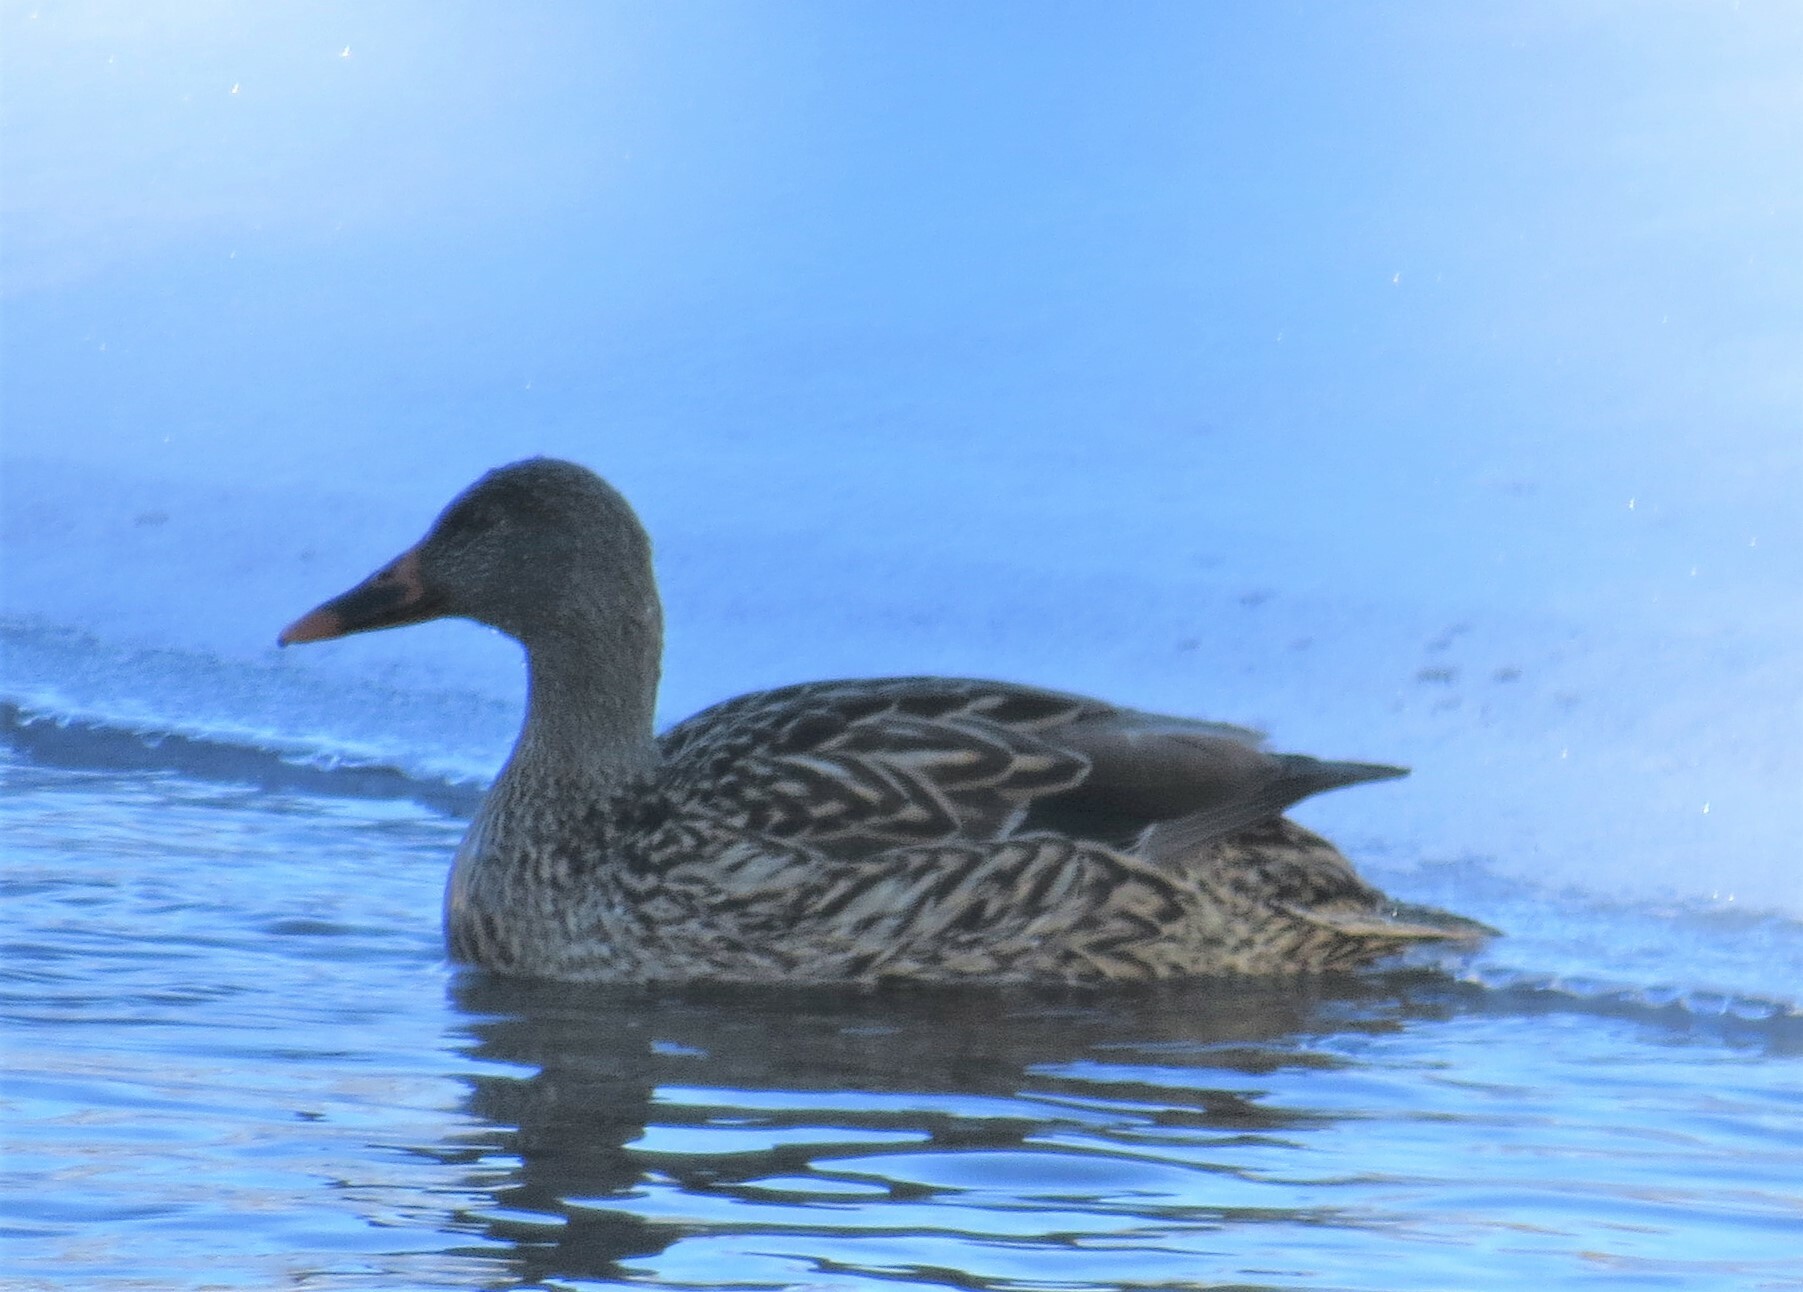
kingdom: Animalia
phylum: Chordata
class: Aves
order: Anseriformes
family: Anatidae
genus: Anas
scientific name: Anas platyrhynchos
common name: Mallard
